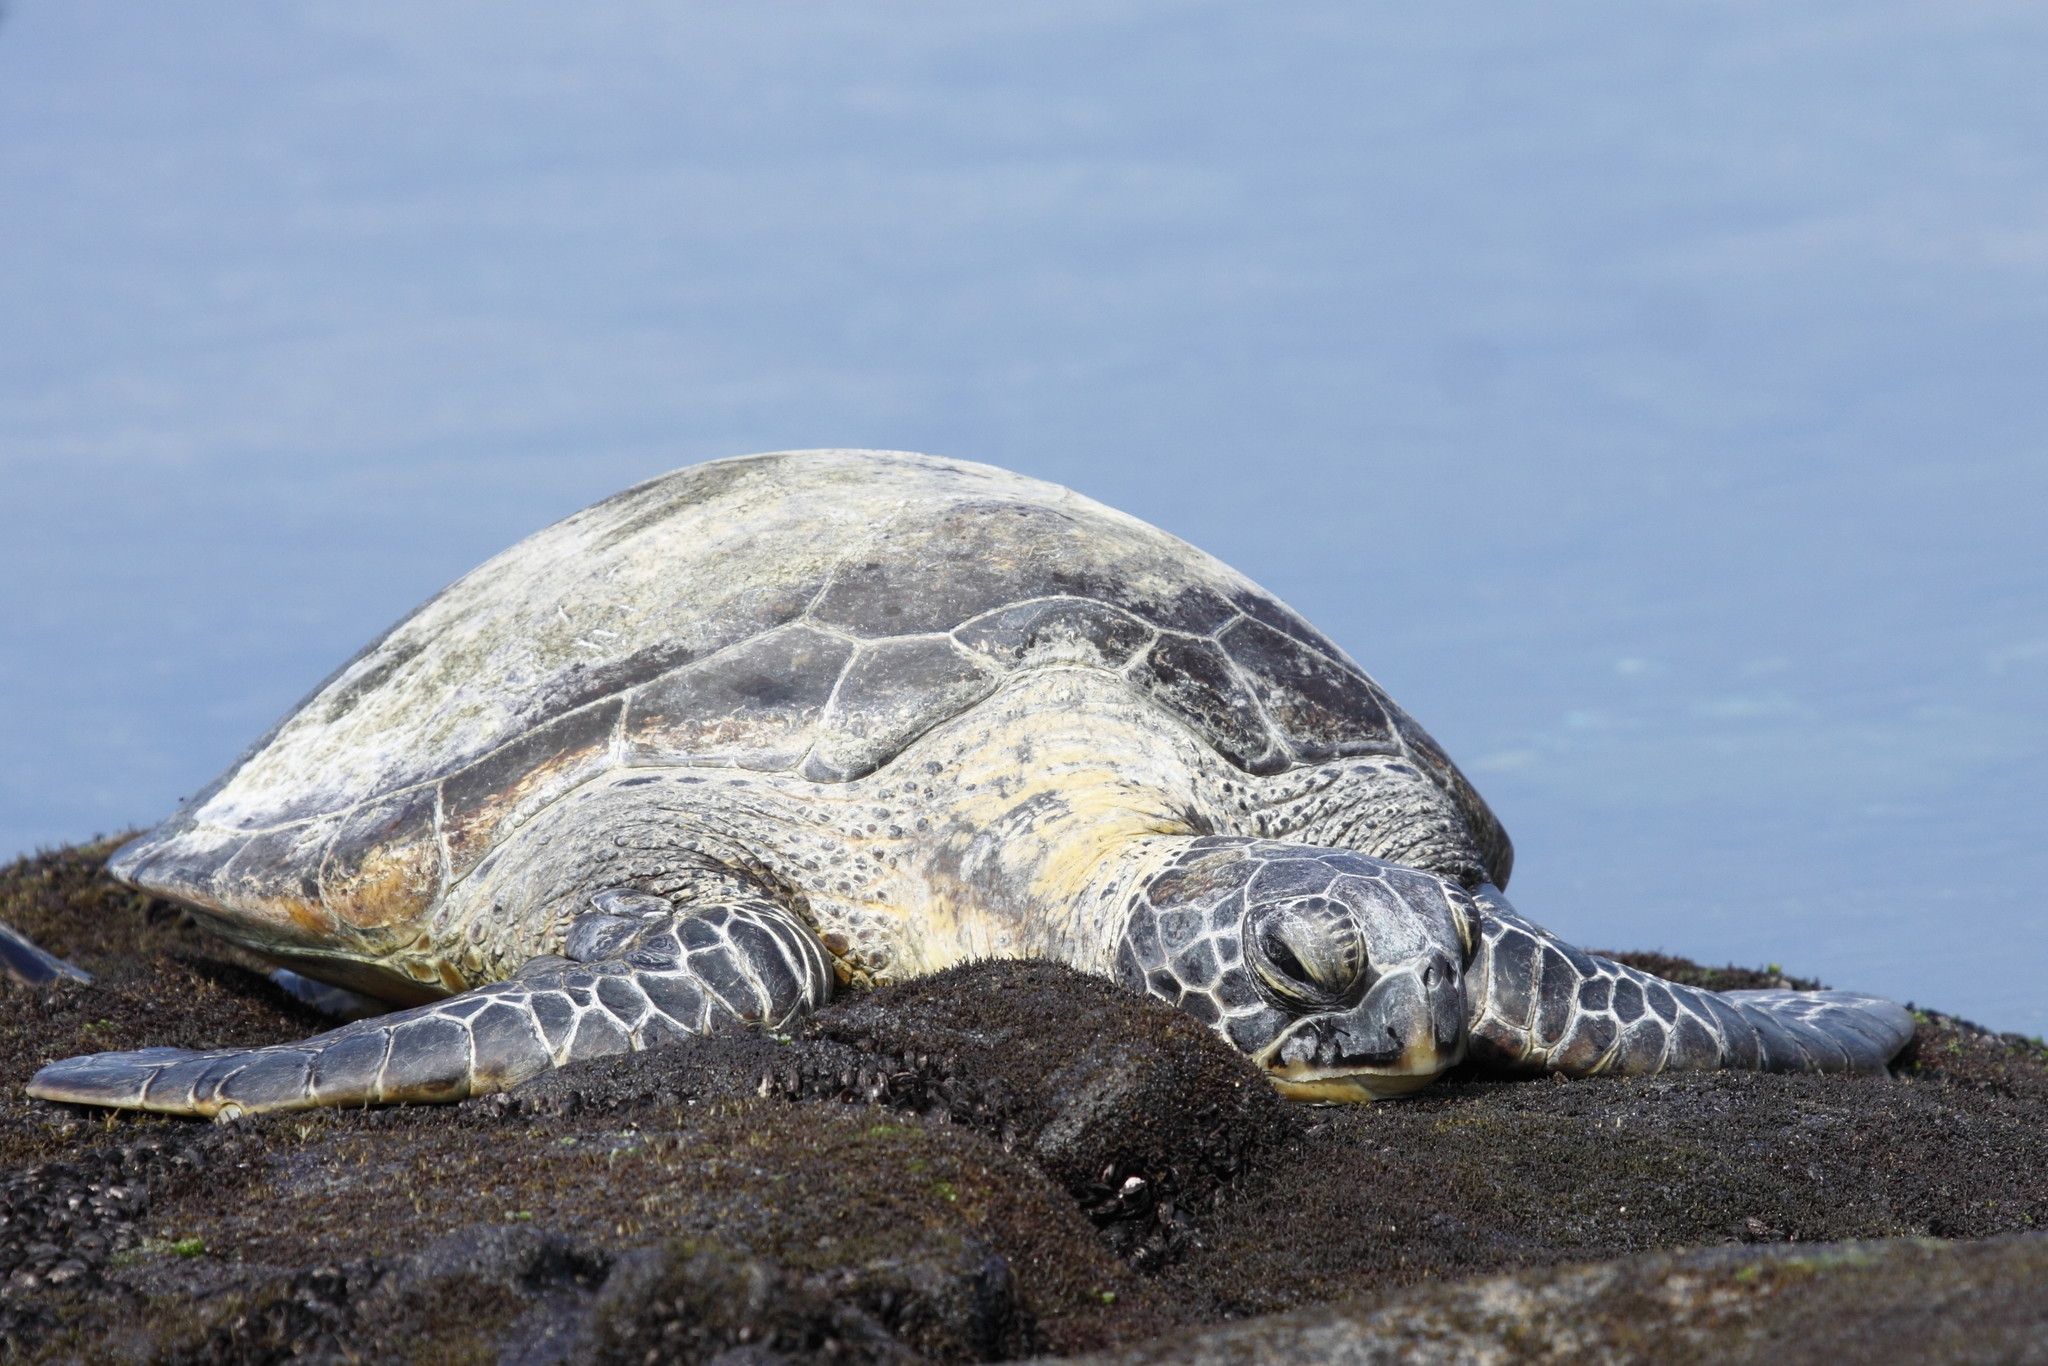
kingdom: Animalia
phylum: Chordata
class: Testudines
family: Cheloniidae
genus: Chelonia
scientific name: Chelonia mydas
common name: Green turtle
